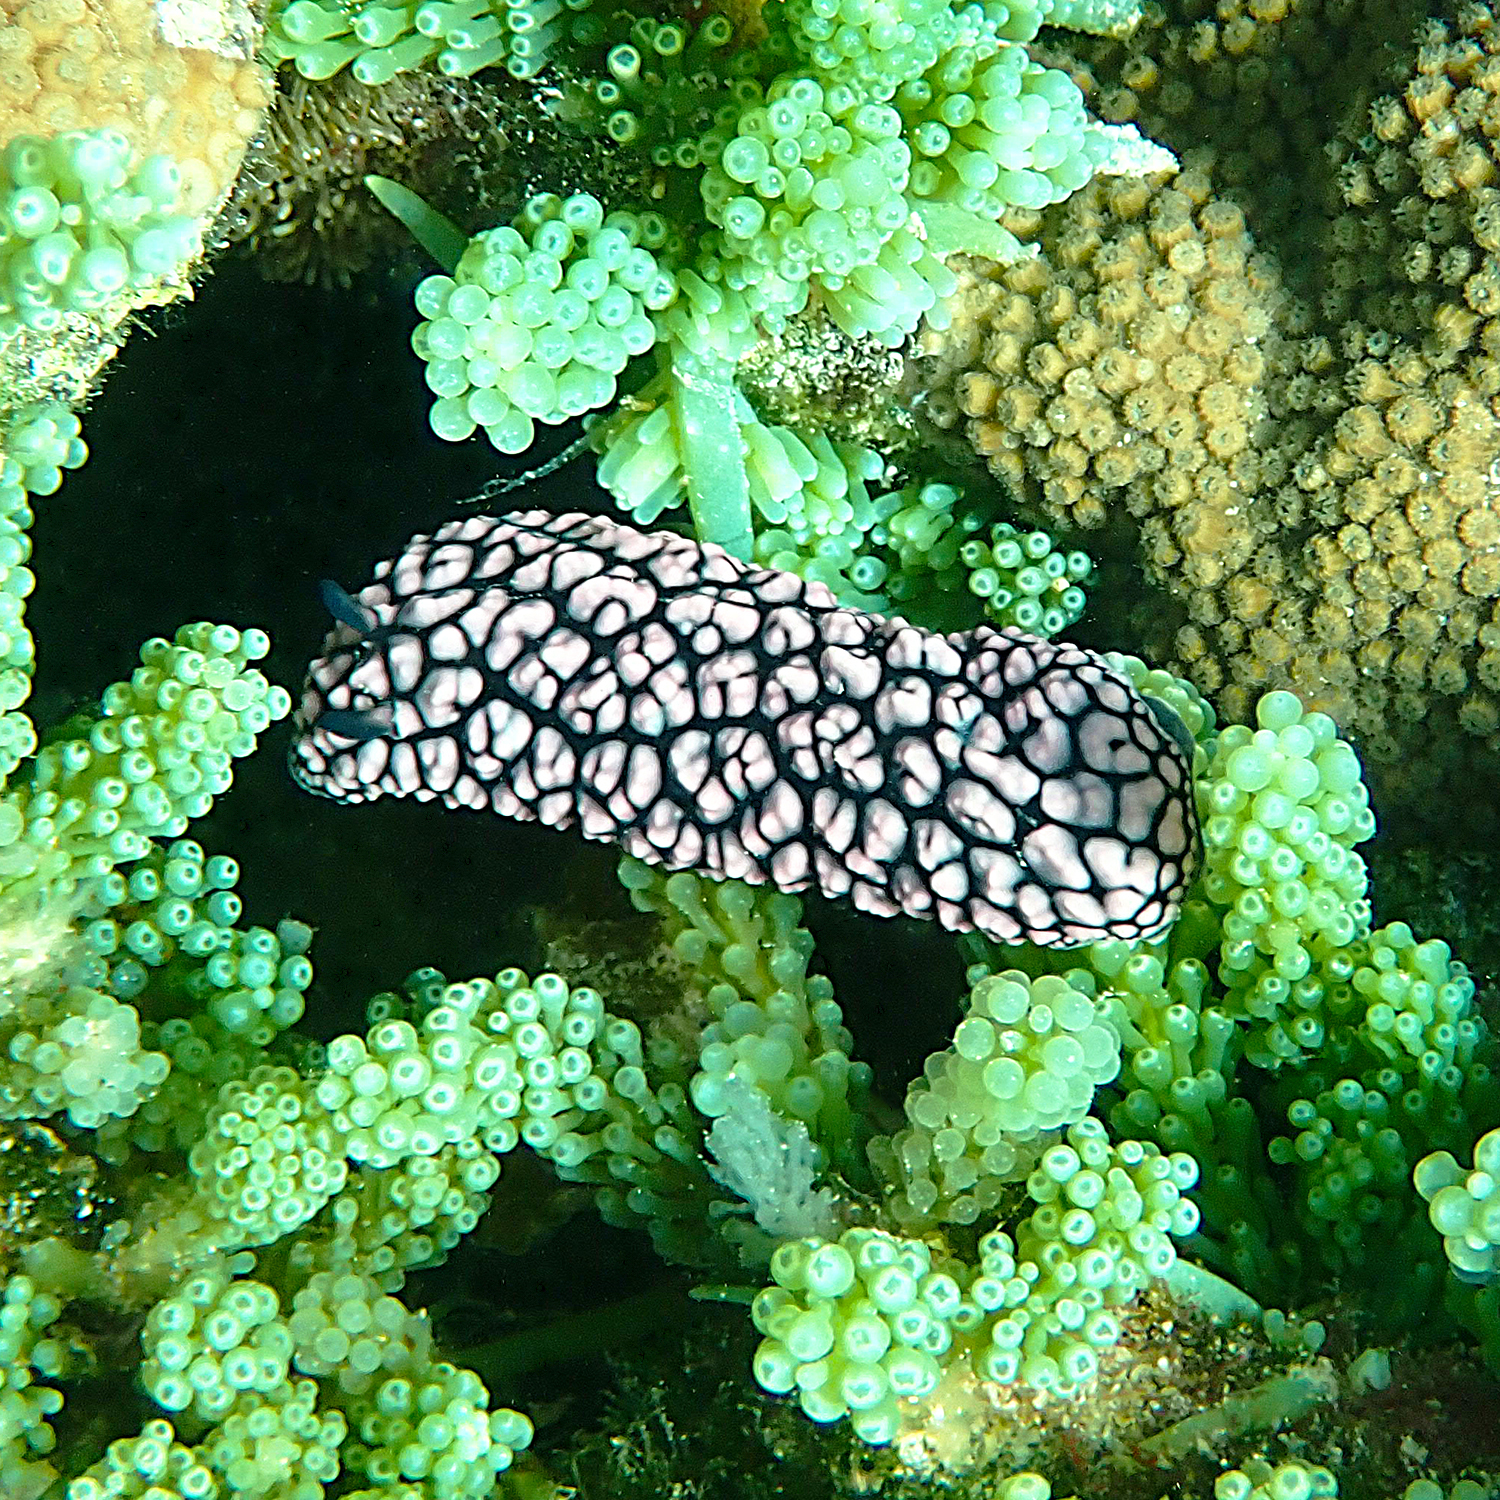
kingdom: Animalia
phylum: Mollusca
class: Gastropoda
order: Nudibranchia
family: Phyllidiidae
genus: Phyllidiella
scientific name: Phyllidiella pustulosa
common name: Pustular phyllidia
